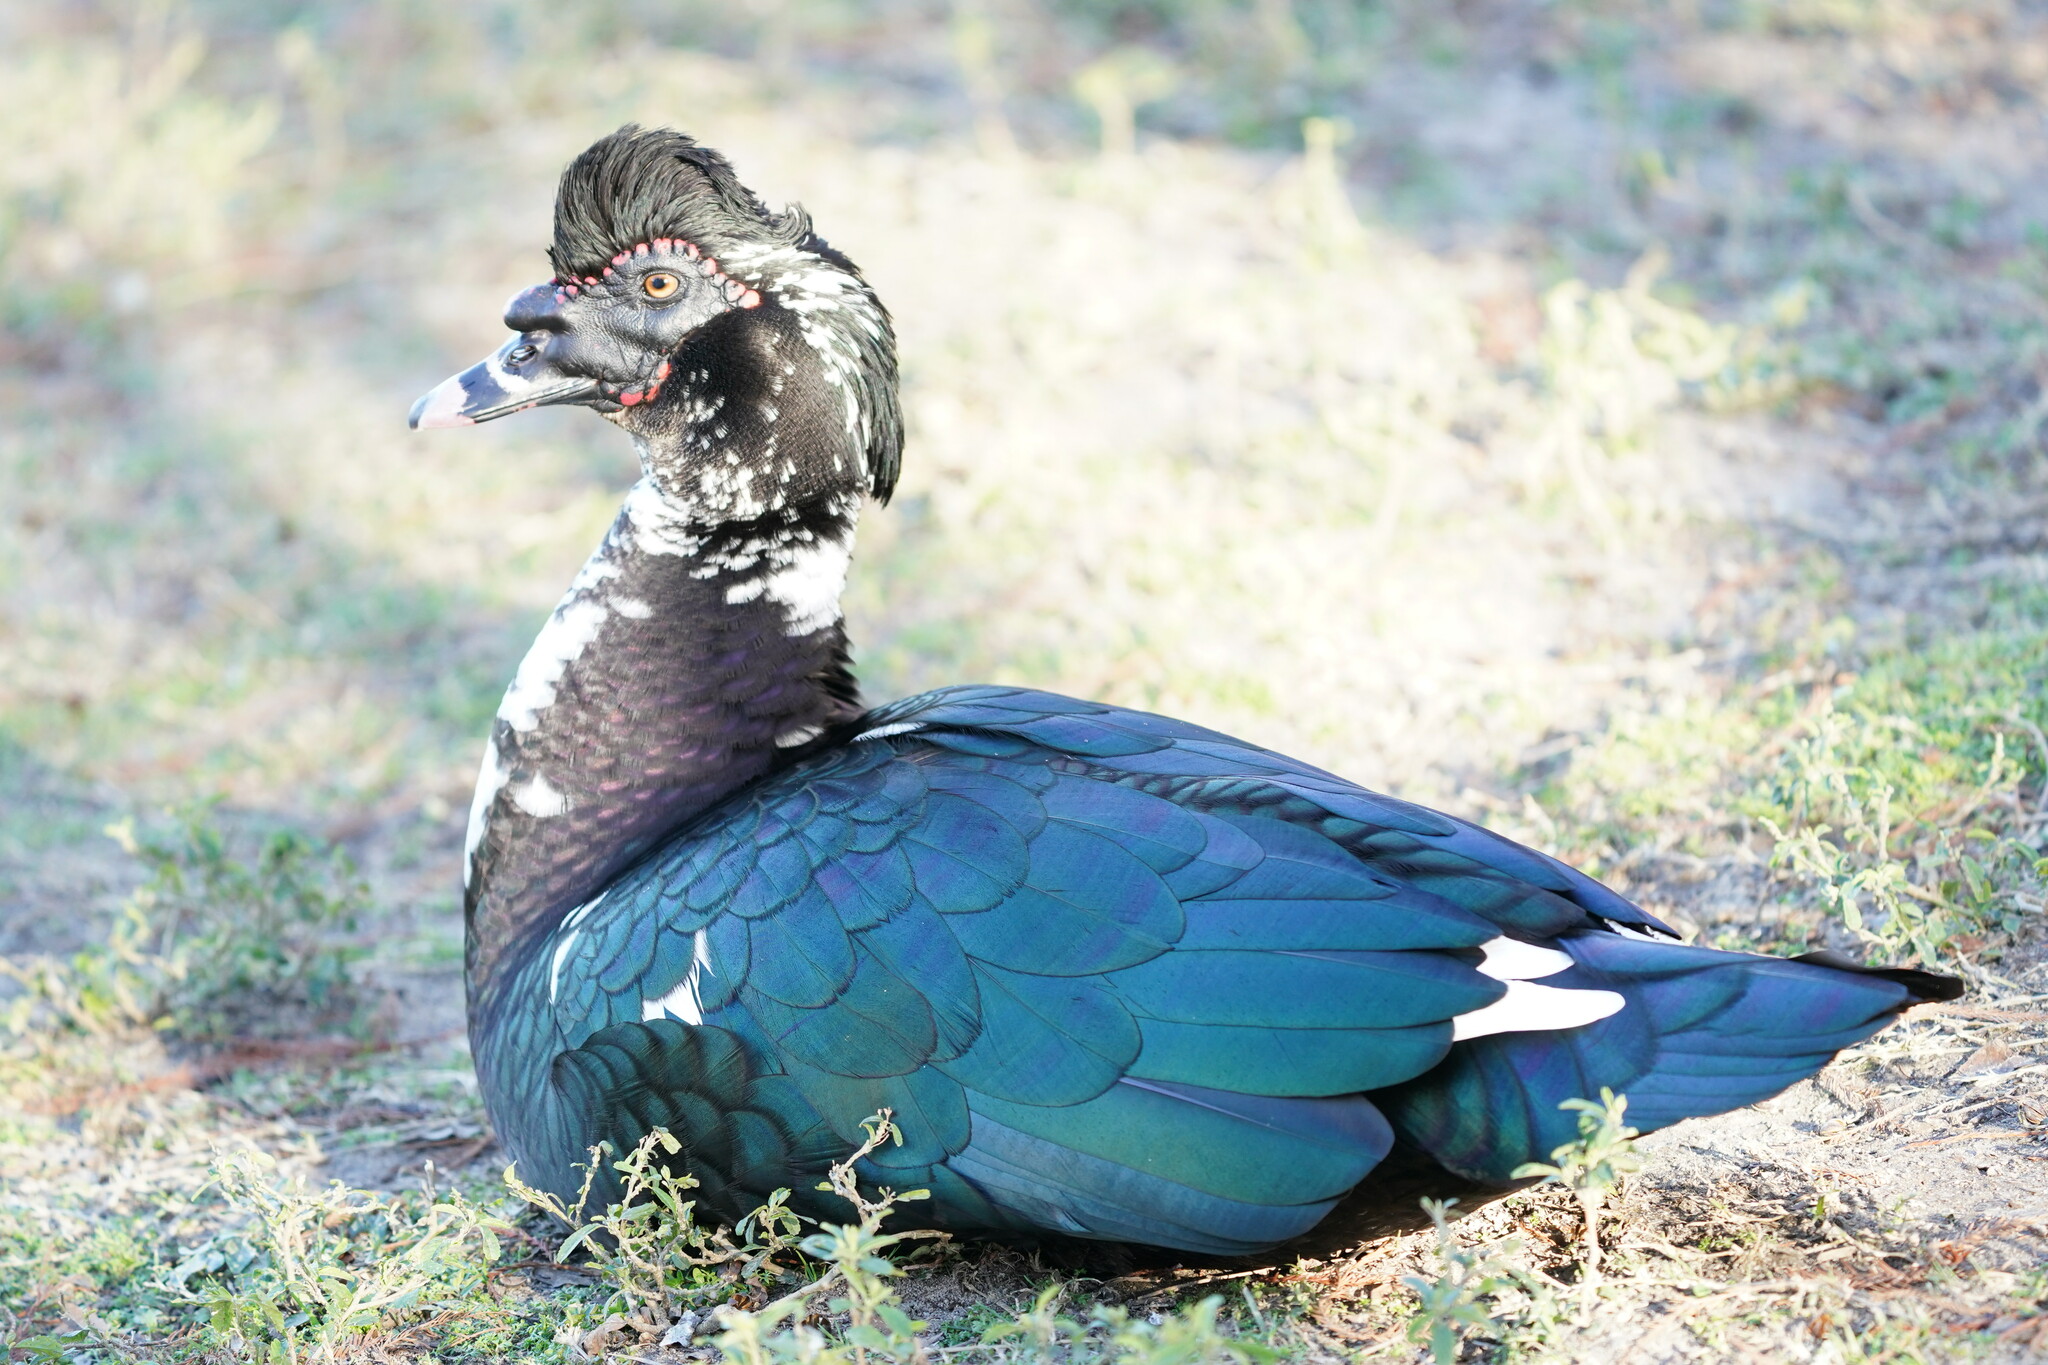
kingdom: Animalia
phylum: Chordata
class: Aves
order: Anseriformes
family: Anatidae
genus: Cairina
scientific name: Cairina moschata
